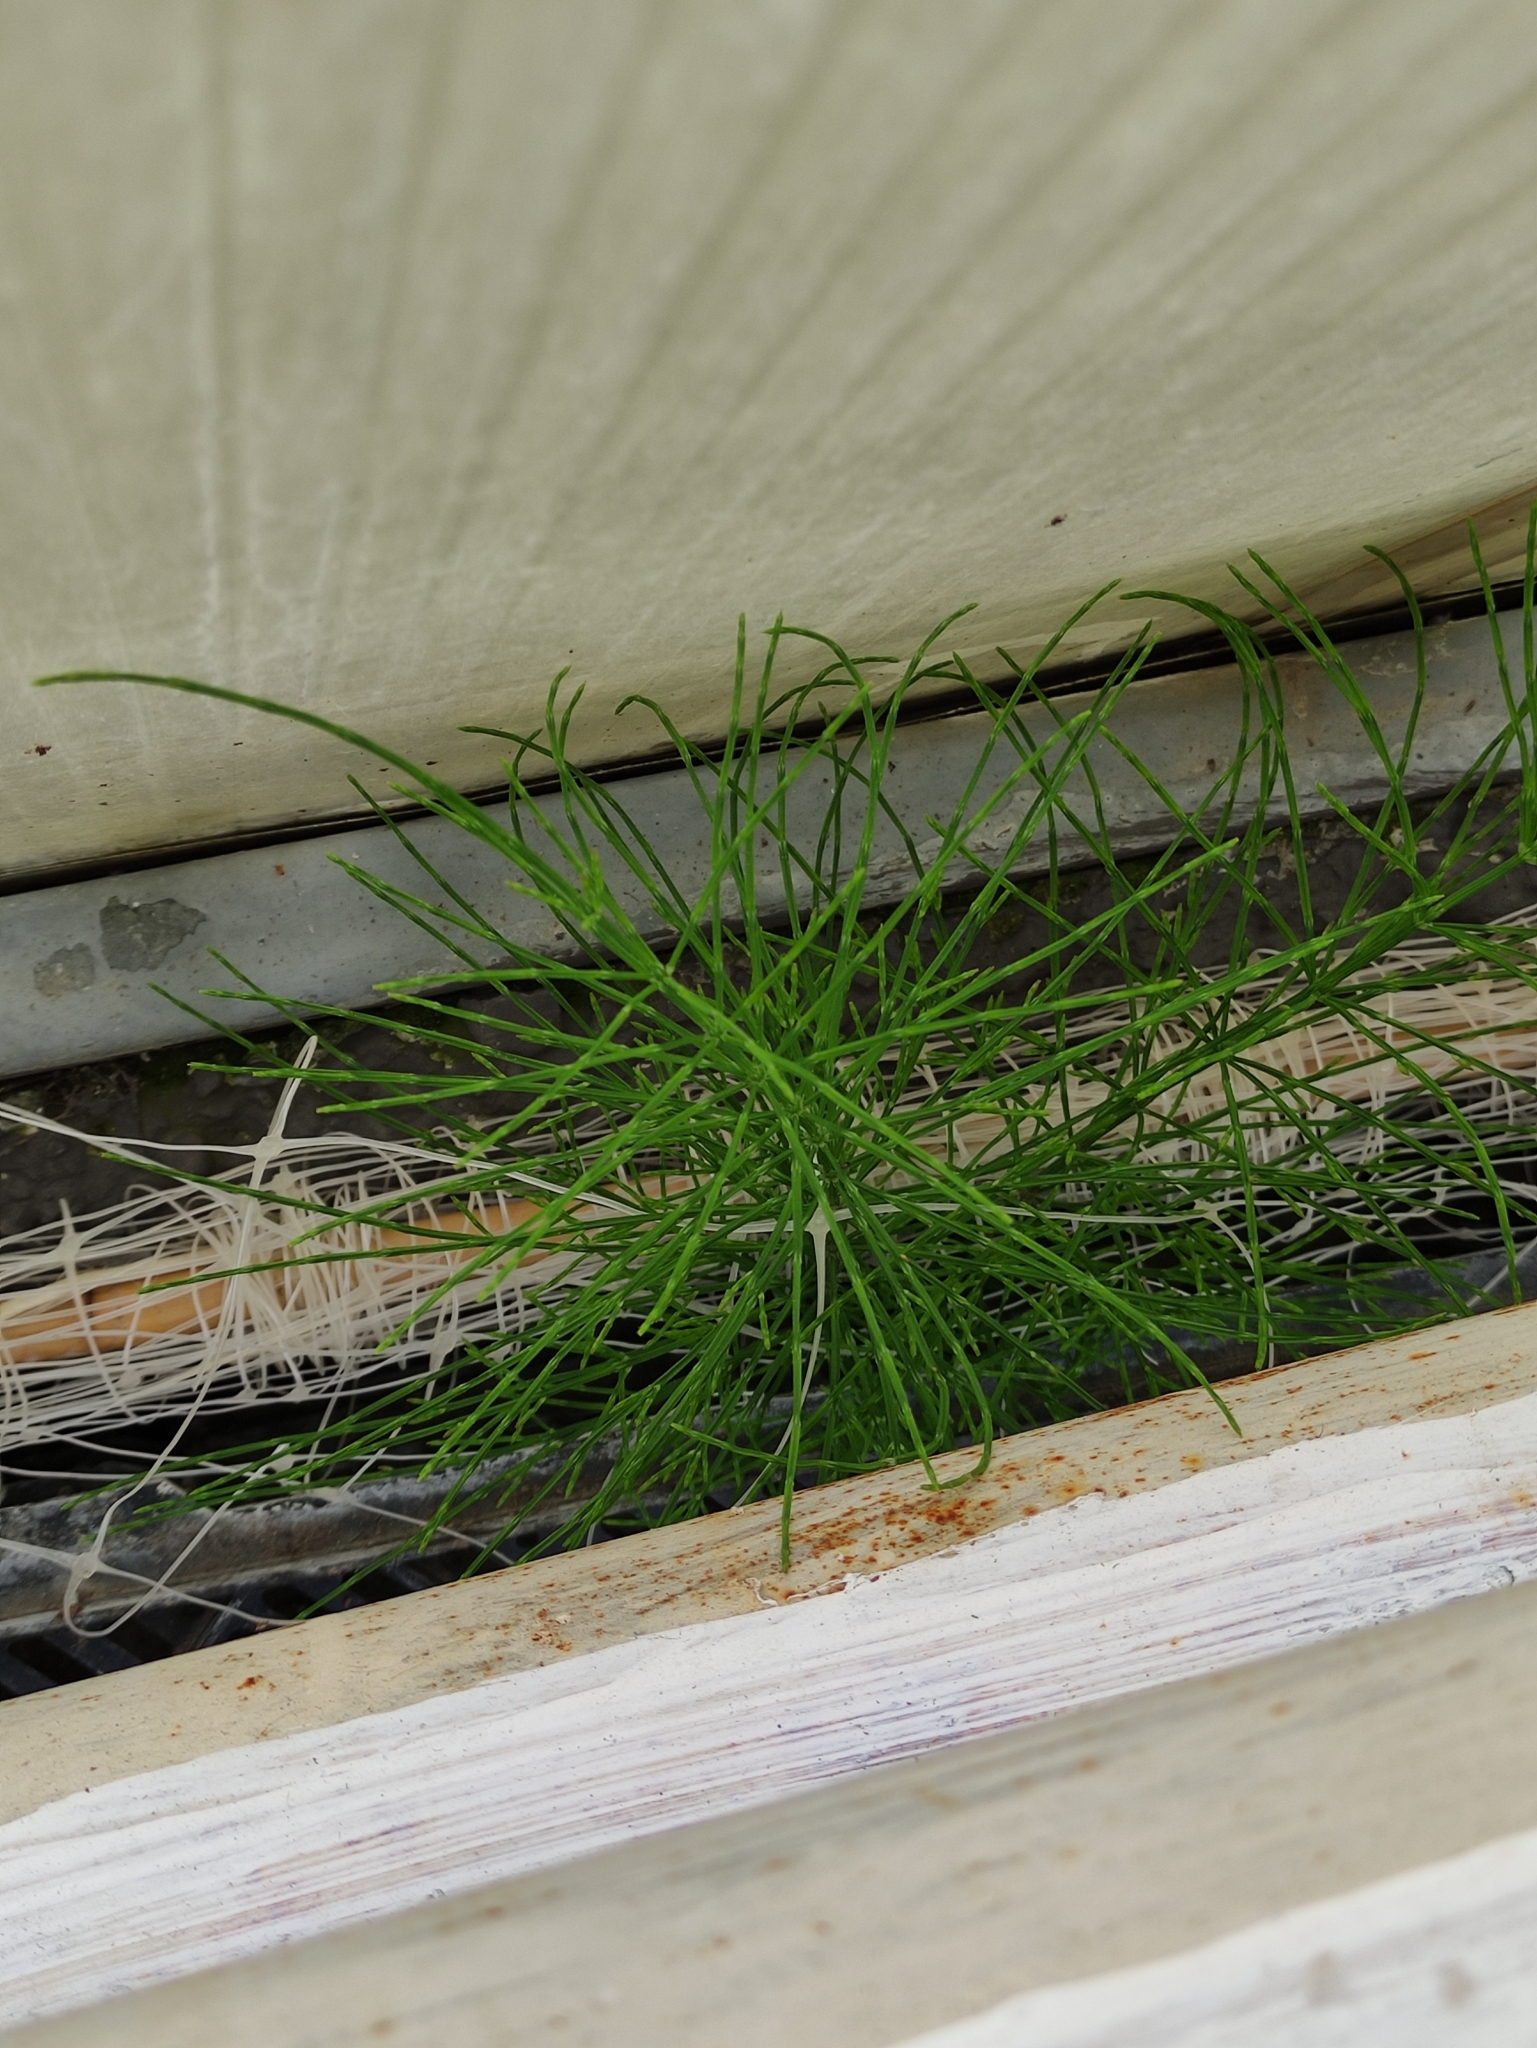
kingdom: Plantae
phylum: Tracheophyta
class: Polypodiopsida
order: Equisetales
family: Equisetaceae
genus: Equisetum
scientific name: Equisetum arvense
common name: Field horsetail
